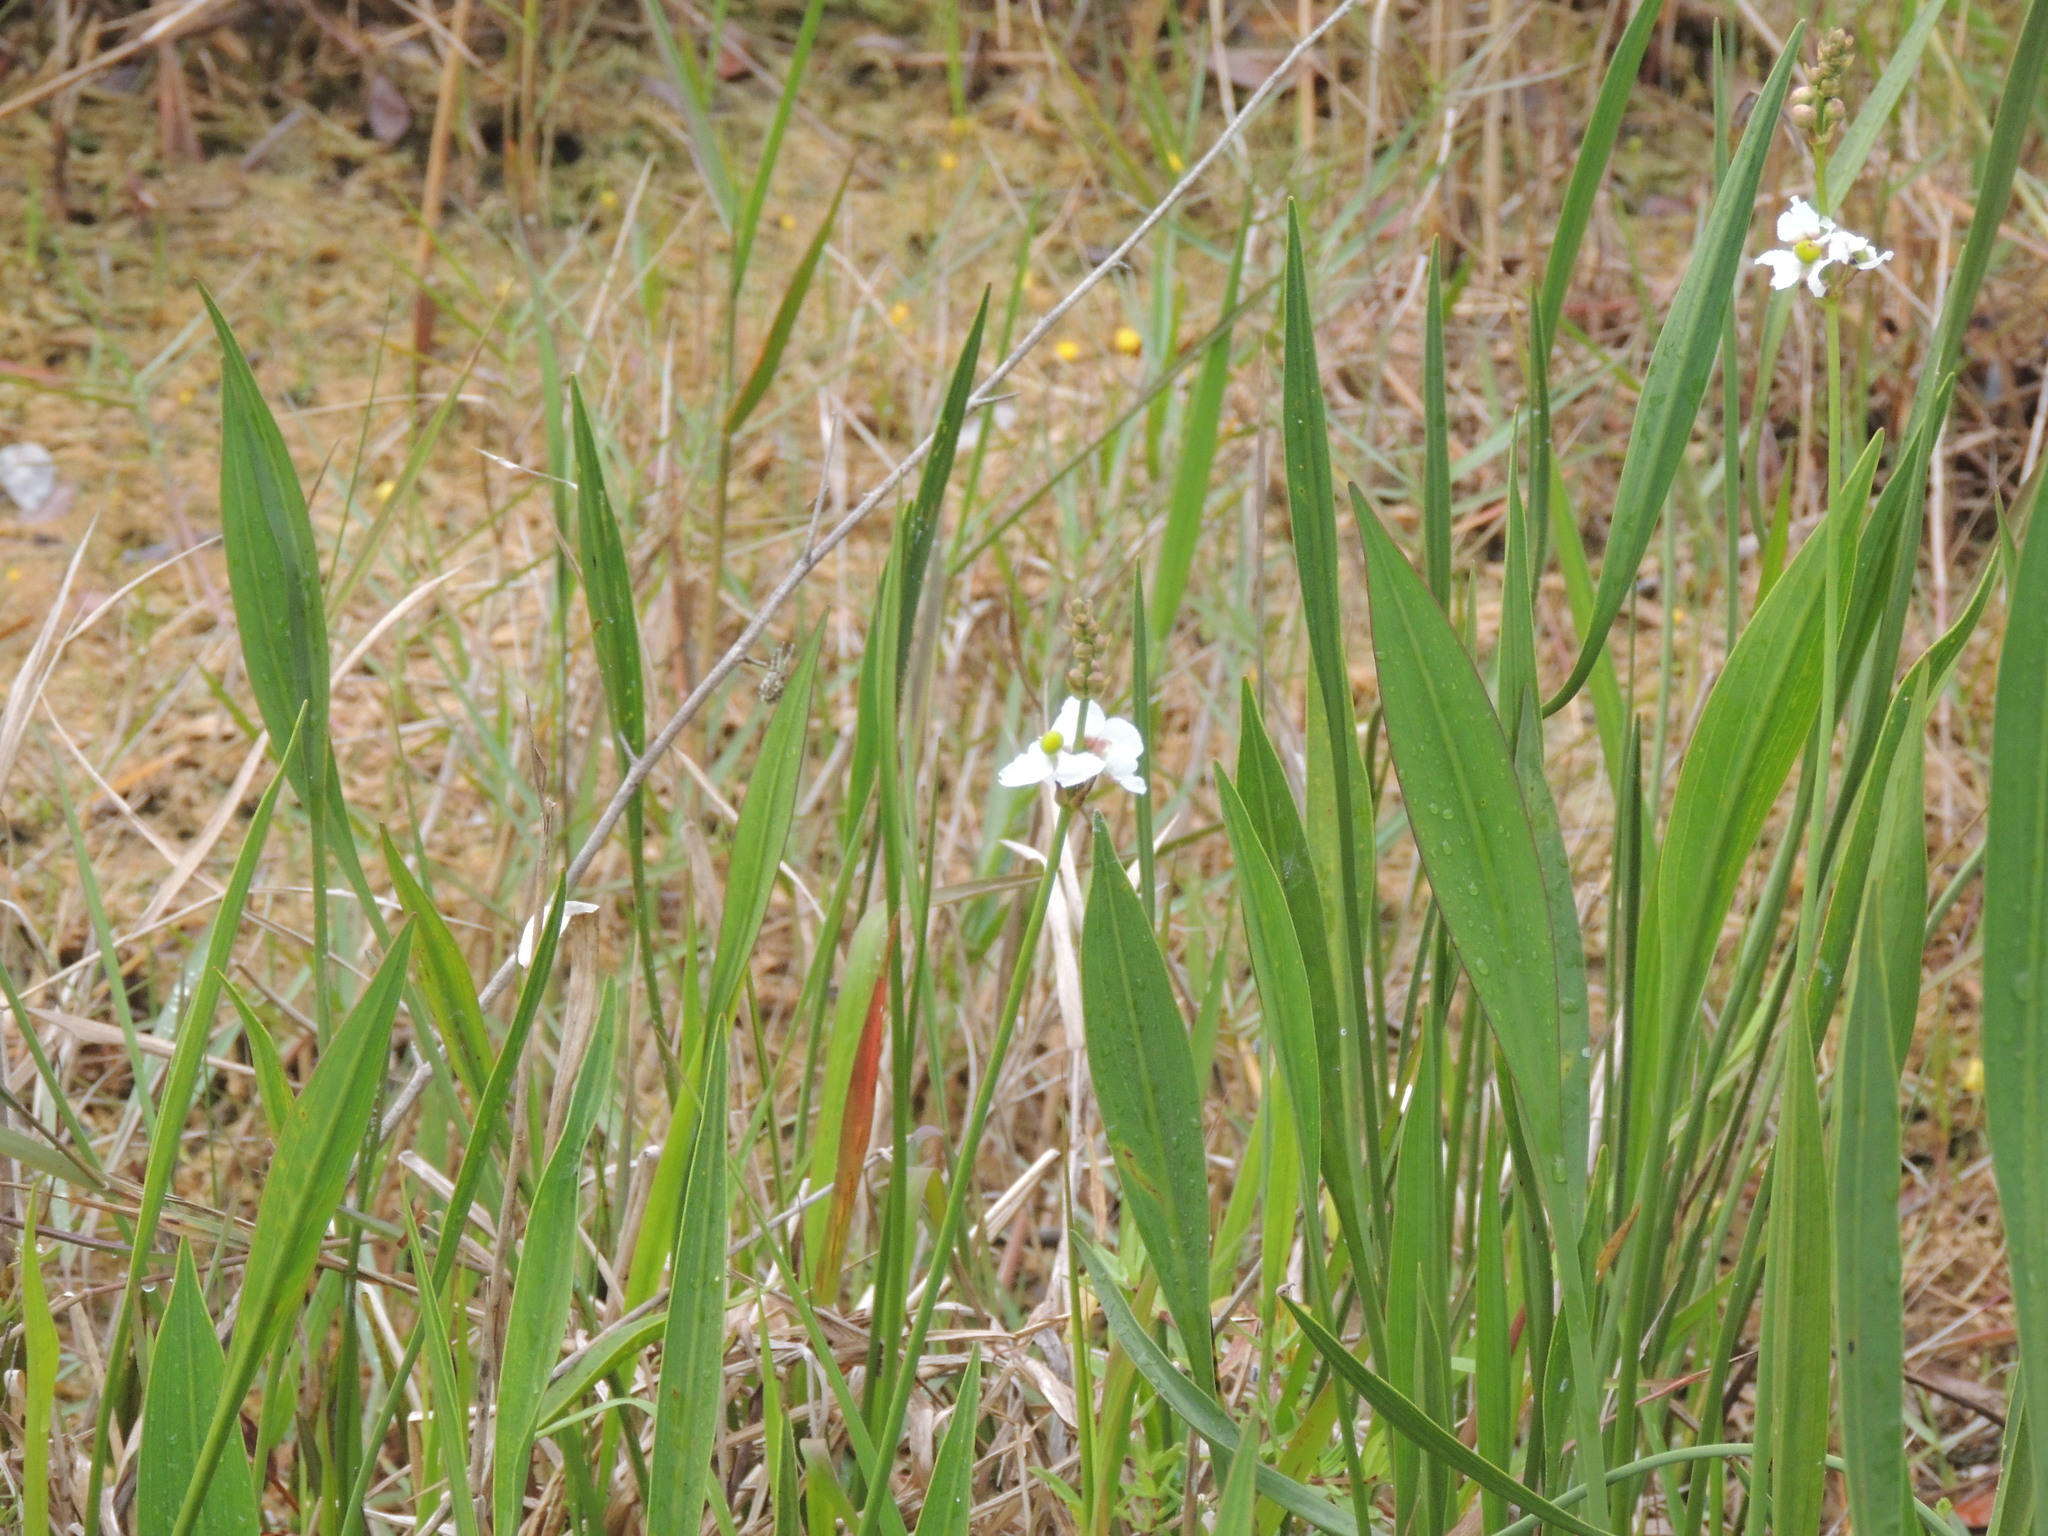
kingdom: Plantae
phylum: Tracheophyta
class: Liliopsida
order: Alismatales
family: Alismataceae
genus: Sagittaria
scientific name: Sagittaria lancifolia
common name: Lance-leaf arrowhead
